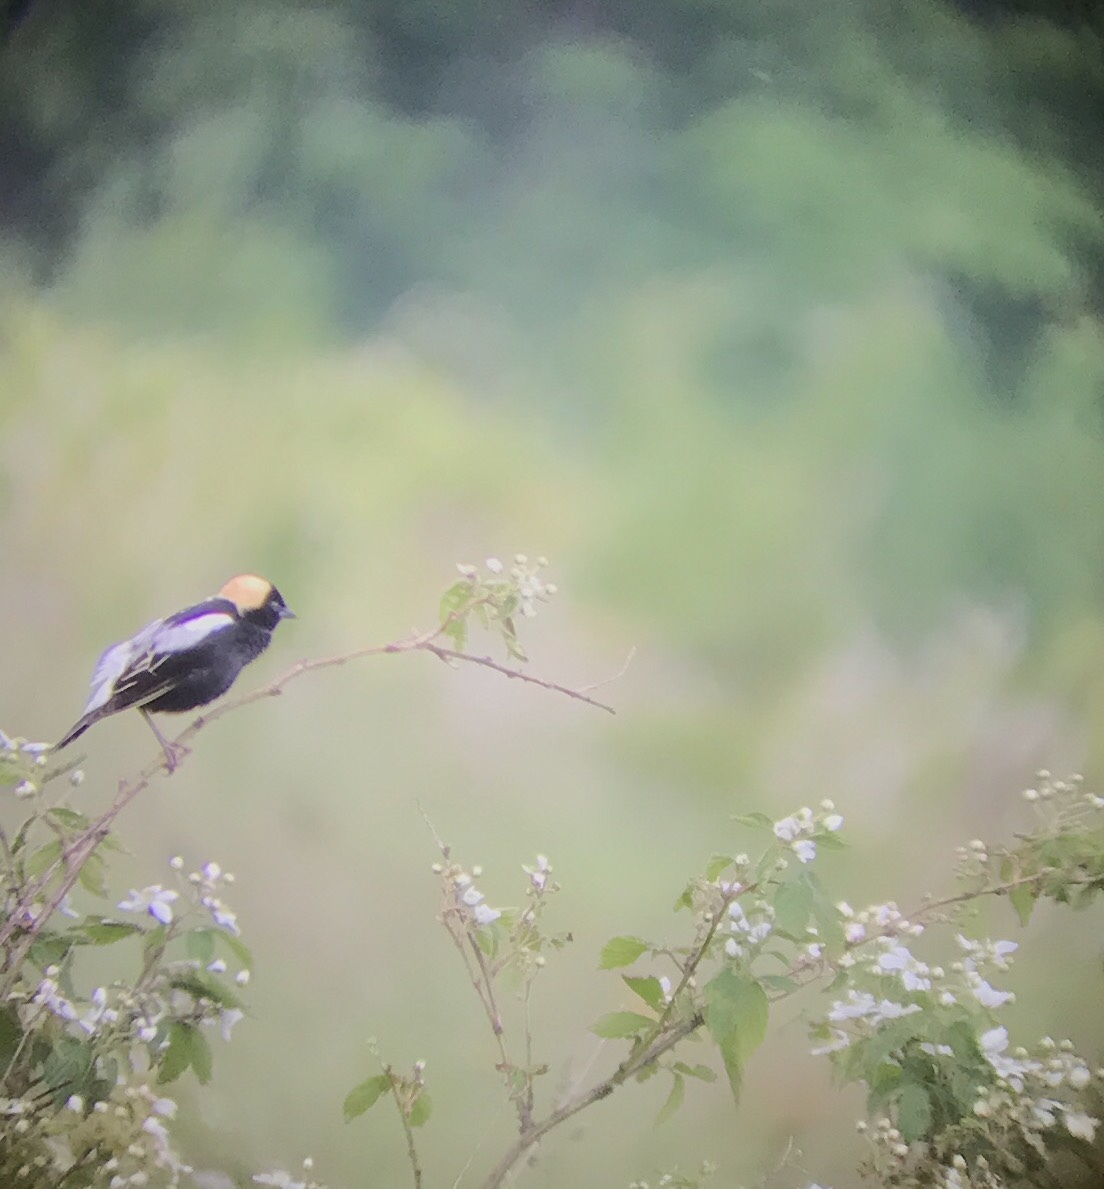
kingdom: Animalia
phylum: Chordata
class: Aves
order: Passeriformes
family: Icteridae
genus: Dolichonyx
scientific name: Dolichonyx oryzivorus
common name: Bobolink
